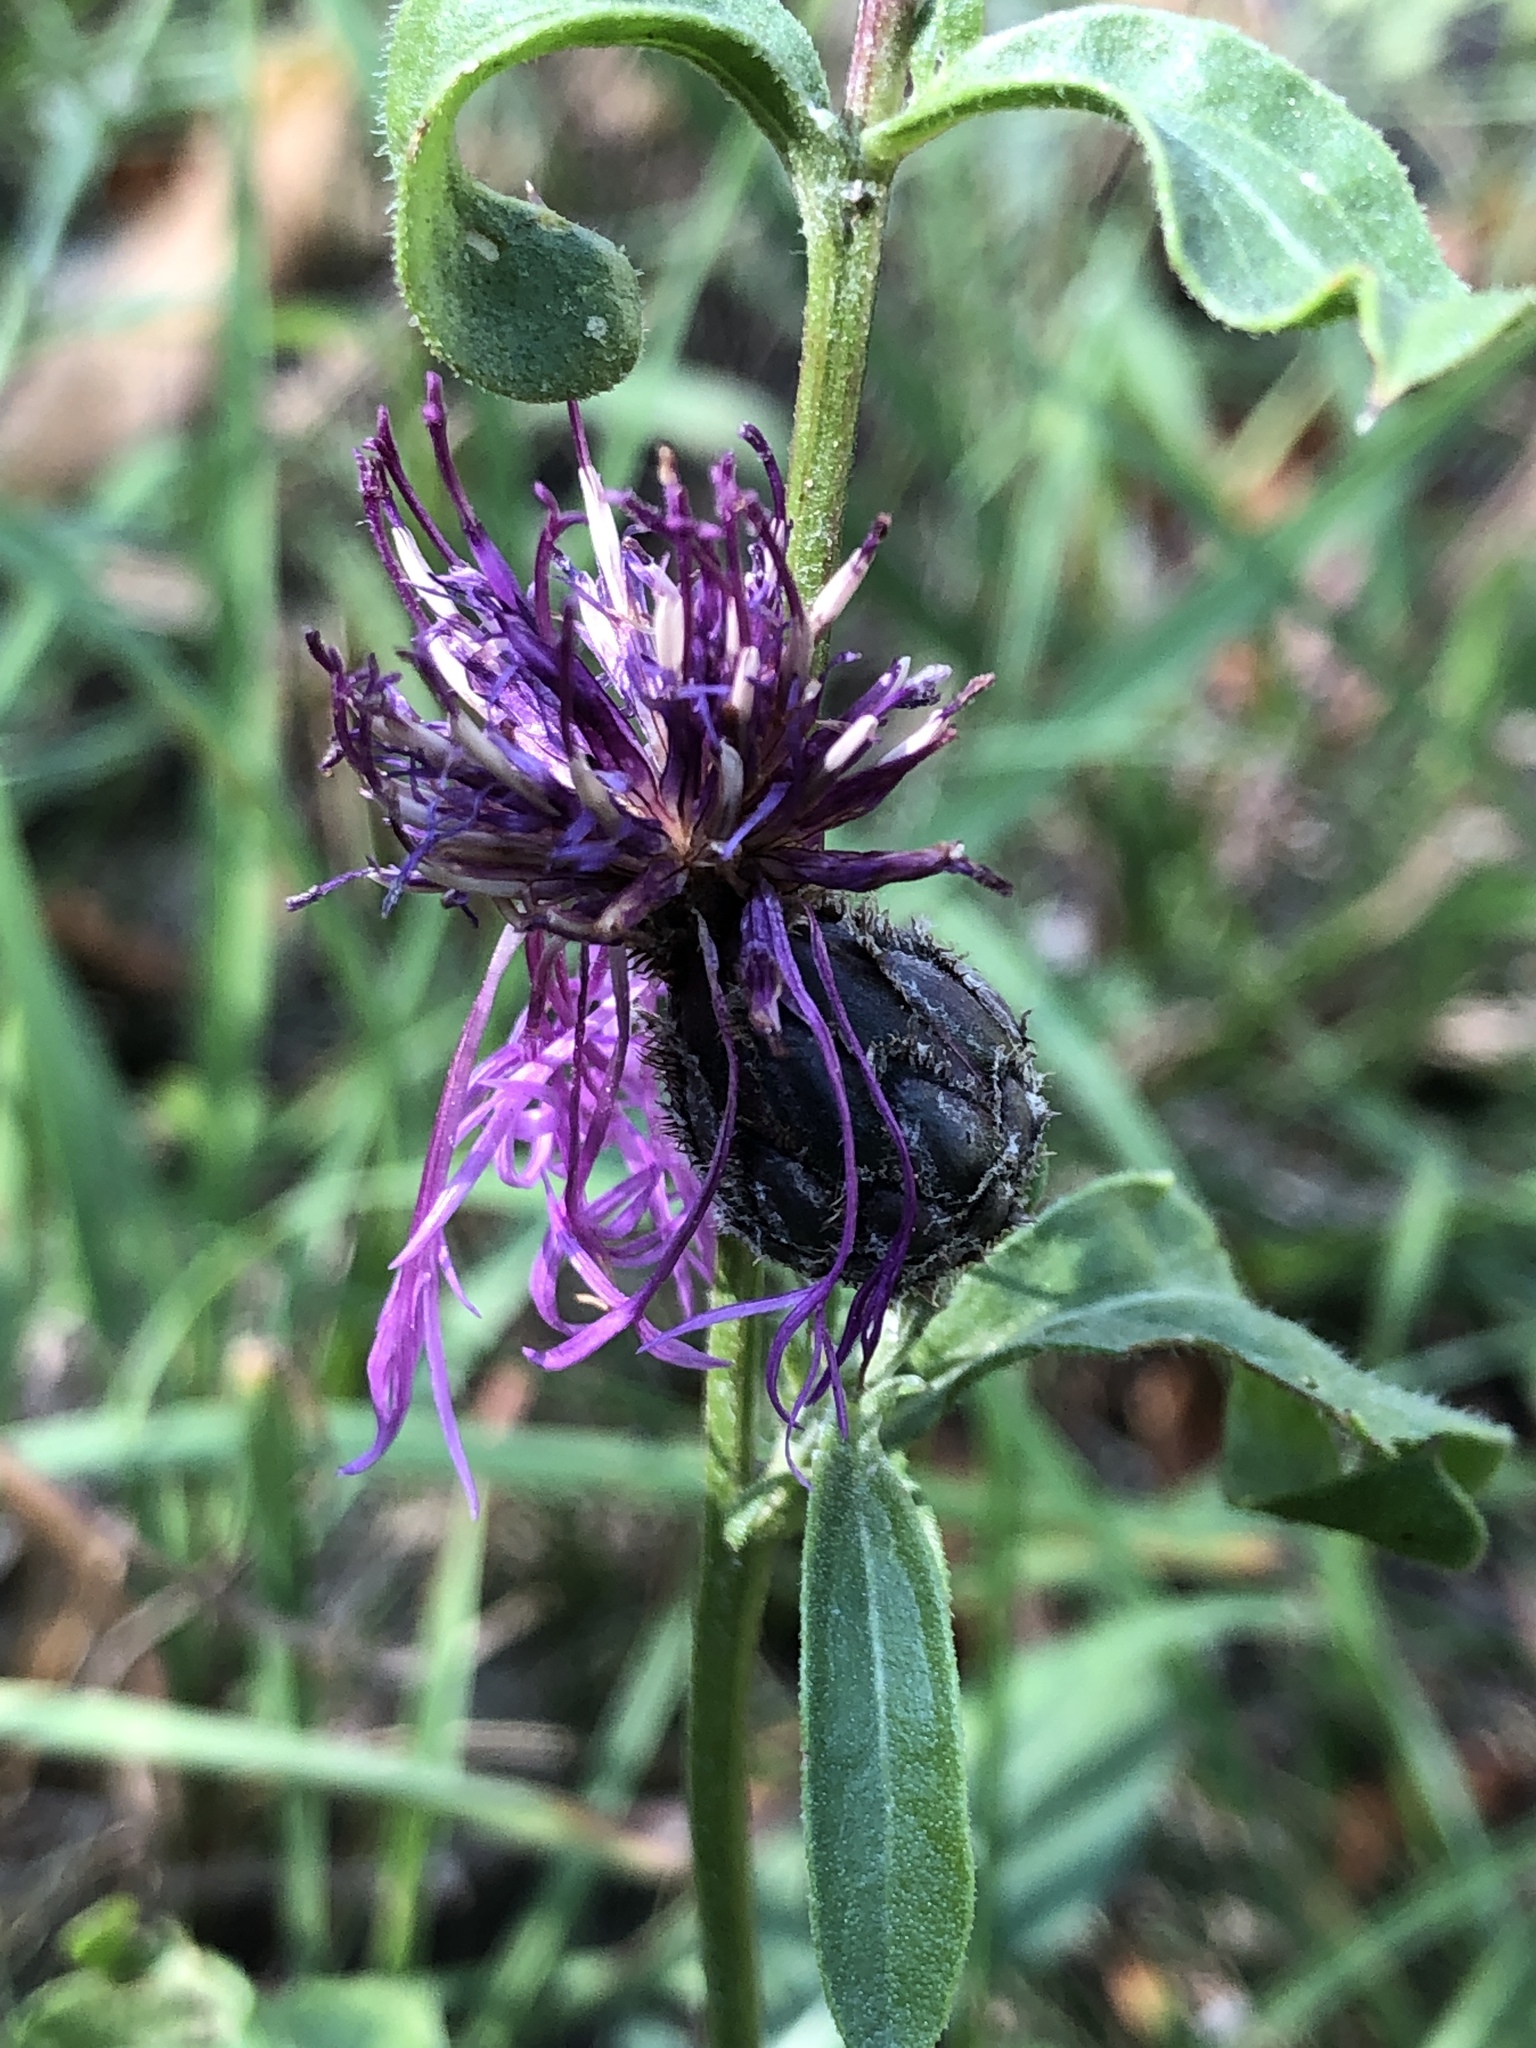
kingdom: Plantae
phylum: Tracheophyta
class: Magnoliopsida
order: Asterales
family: Asteraceae
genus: Centaurea
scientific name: Centaurea scabiosa
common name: Greater knapweed
